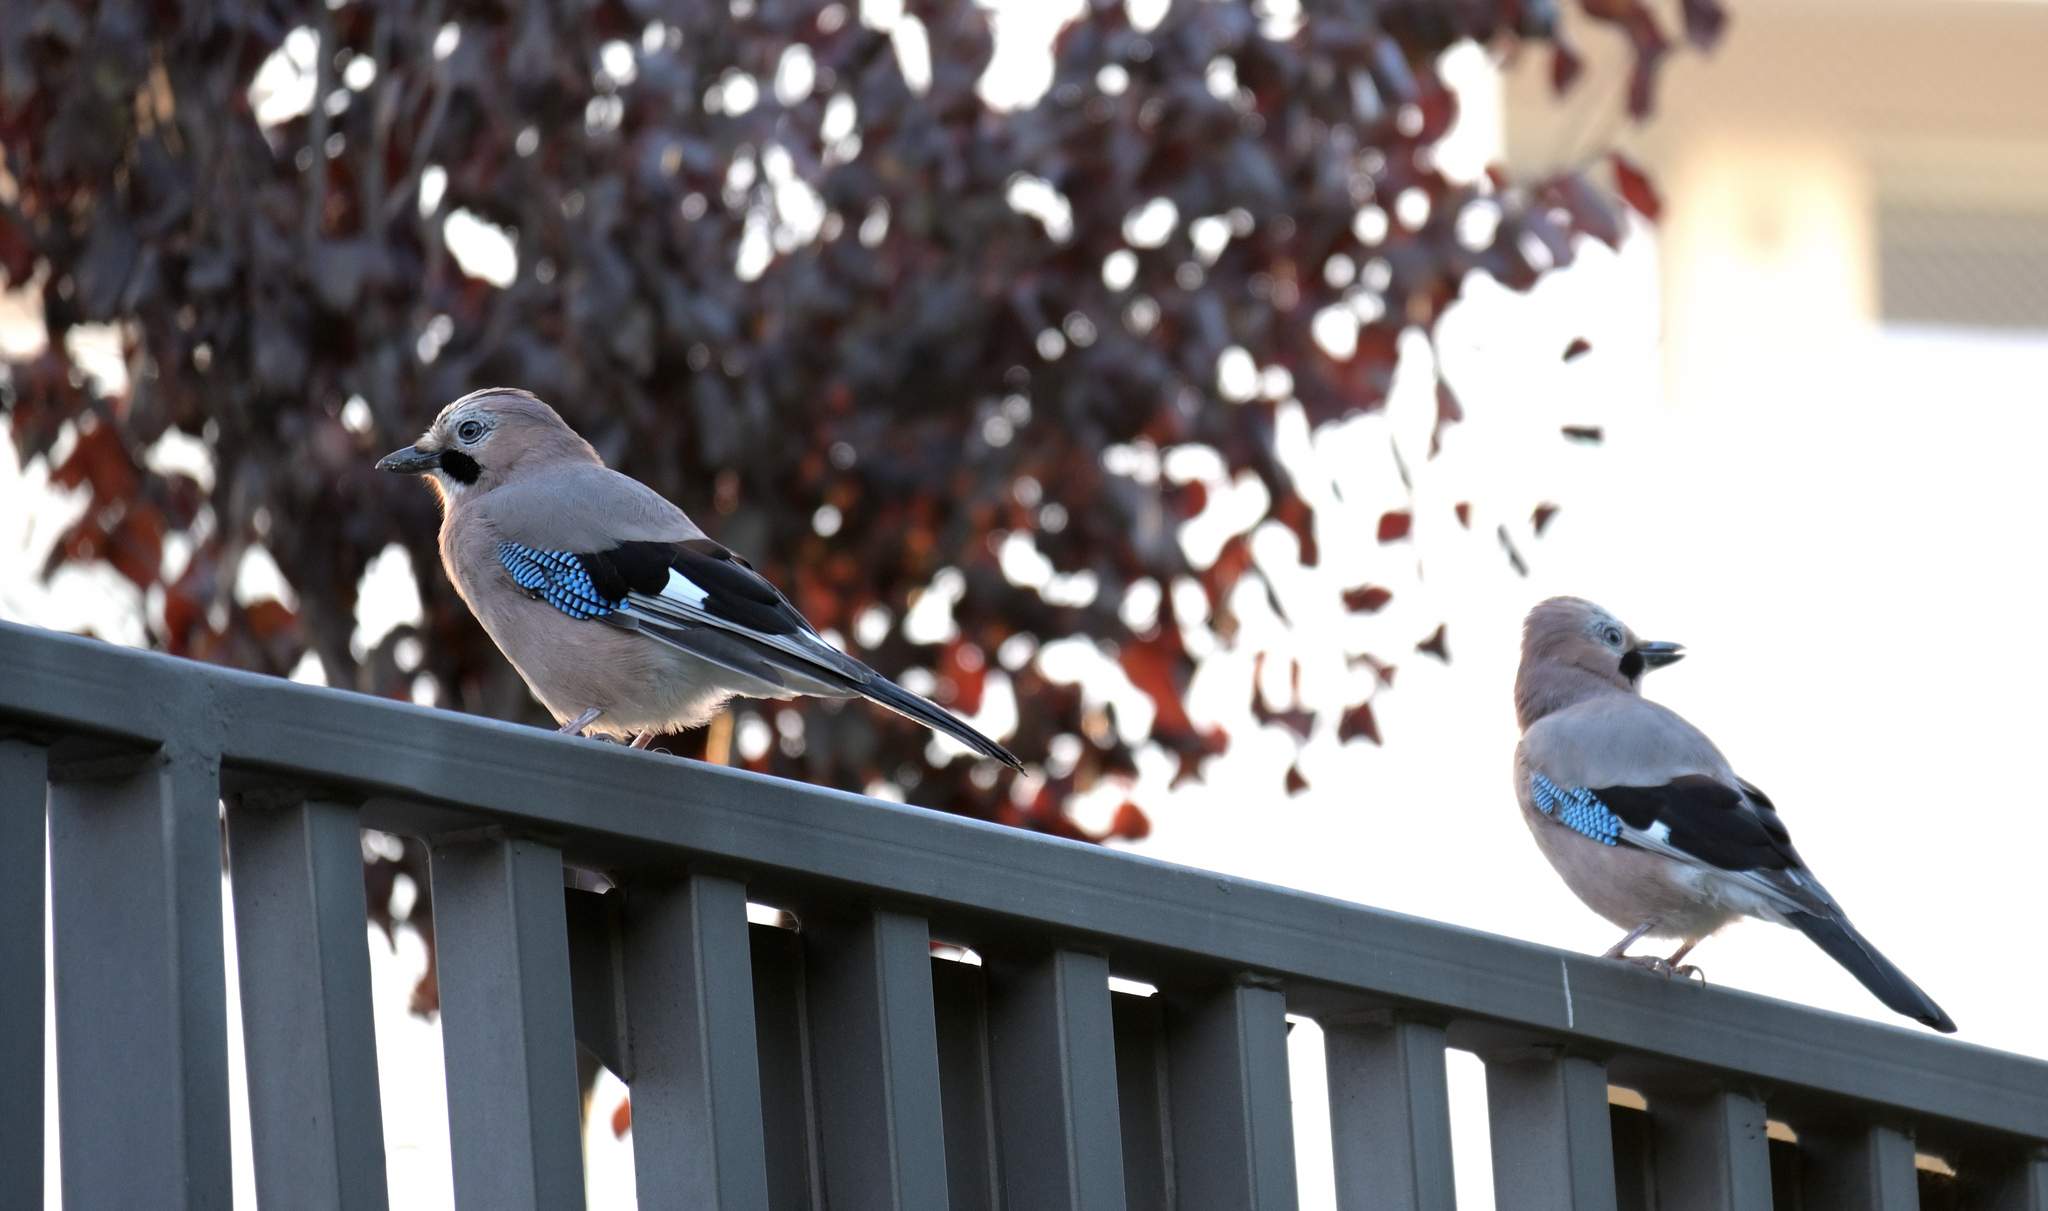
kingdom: Animalia
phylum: Chordata
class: Aves
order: Passeriformes
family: Corvidae
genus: Garrulus
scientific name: Garrulus glandarius
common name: Eurasian jay
